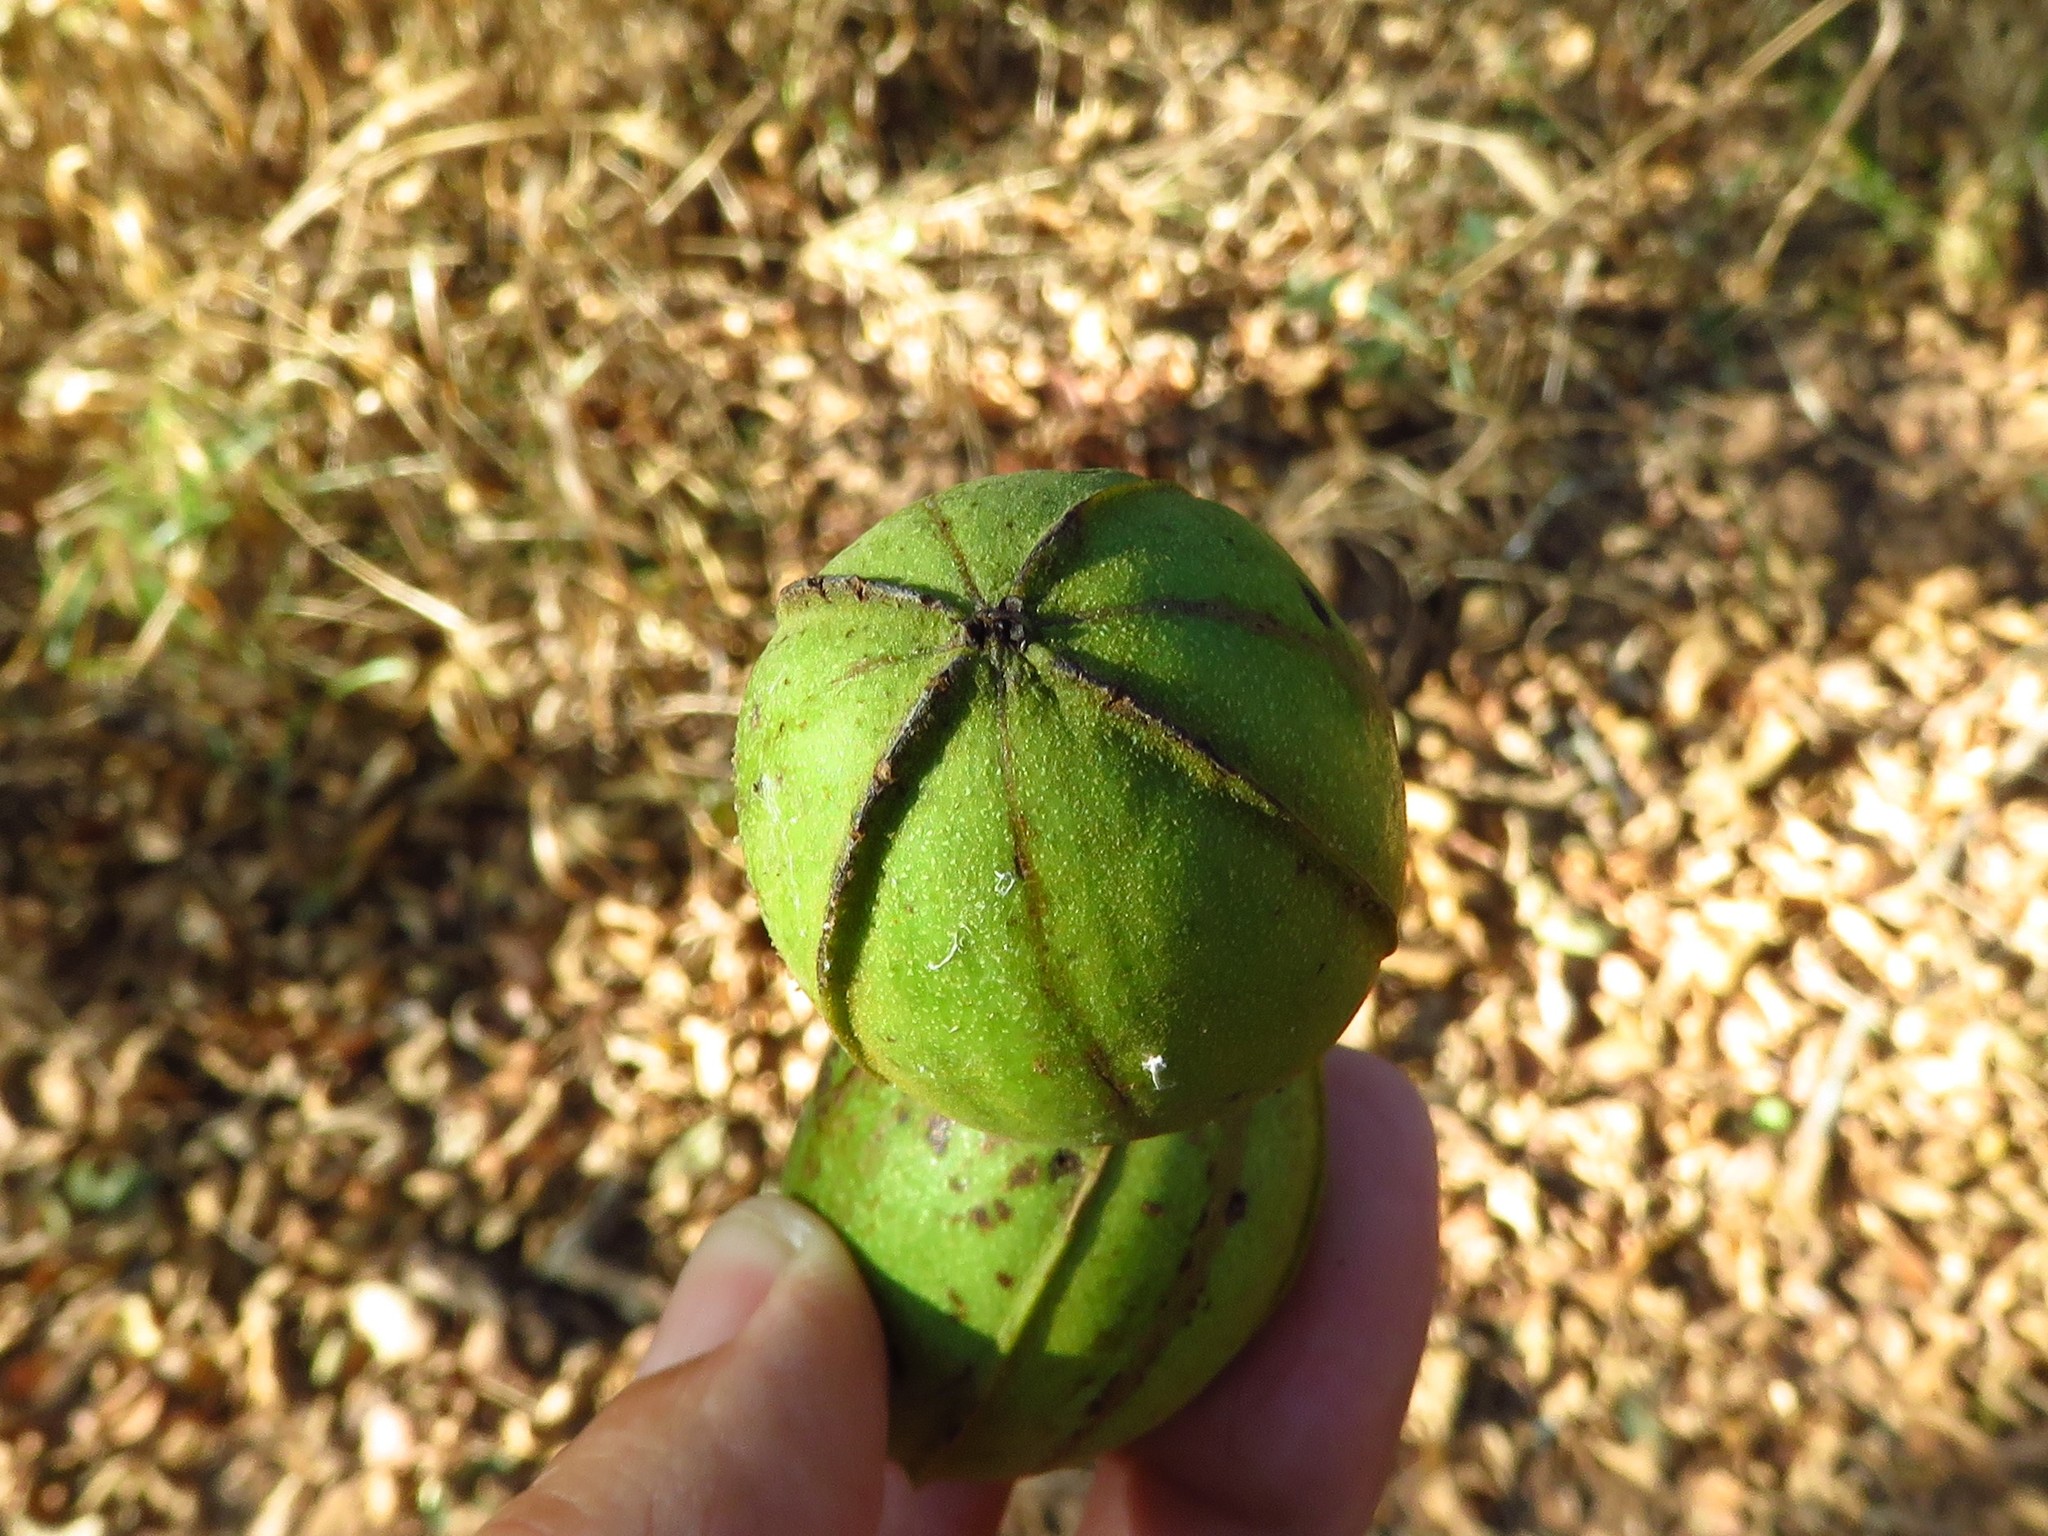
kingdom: Plantae
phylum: Tracheophyta
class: Magnoliopsida
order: Fagales
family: Juglandaceae
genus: Carya
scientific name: Carya illinoinensis
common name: Pecan
